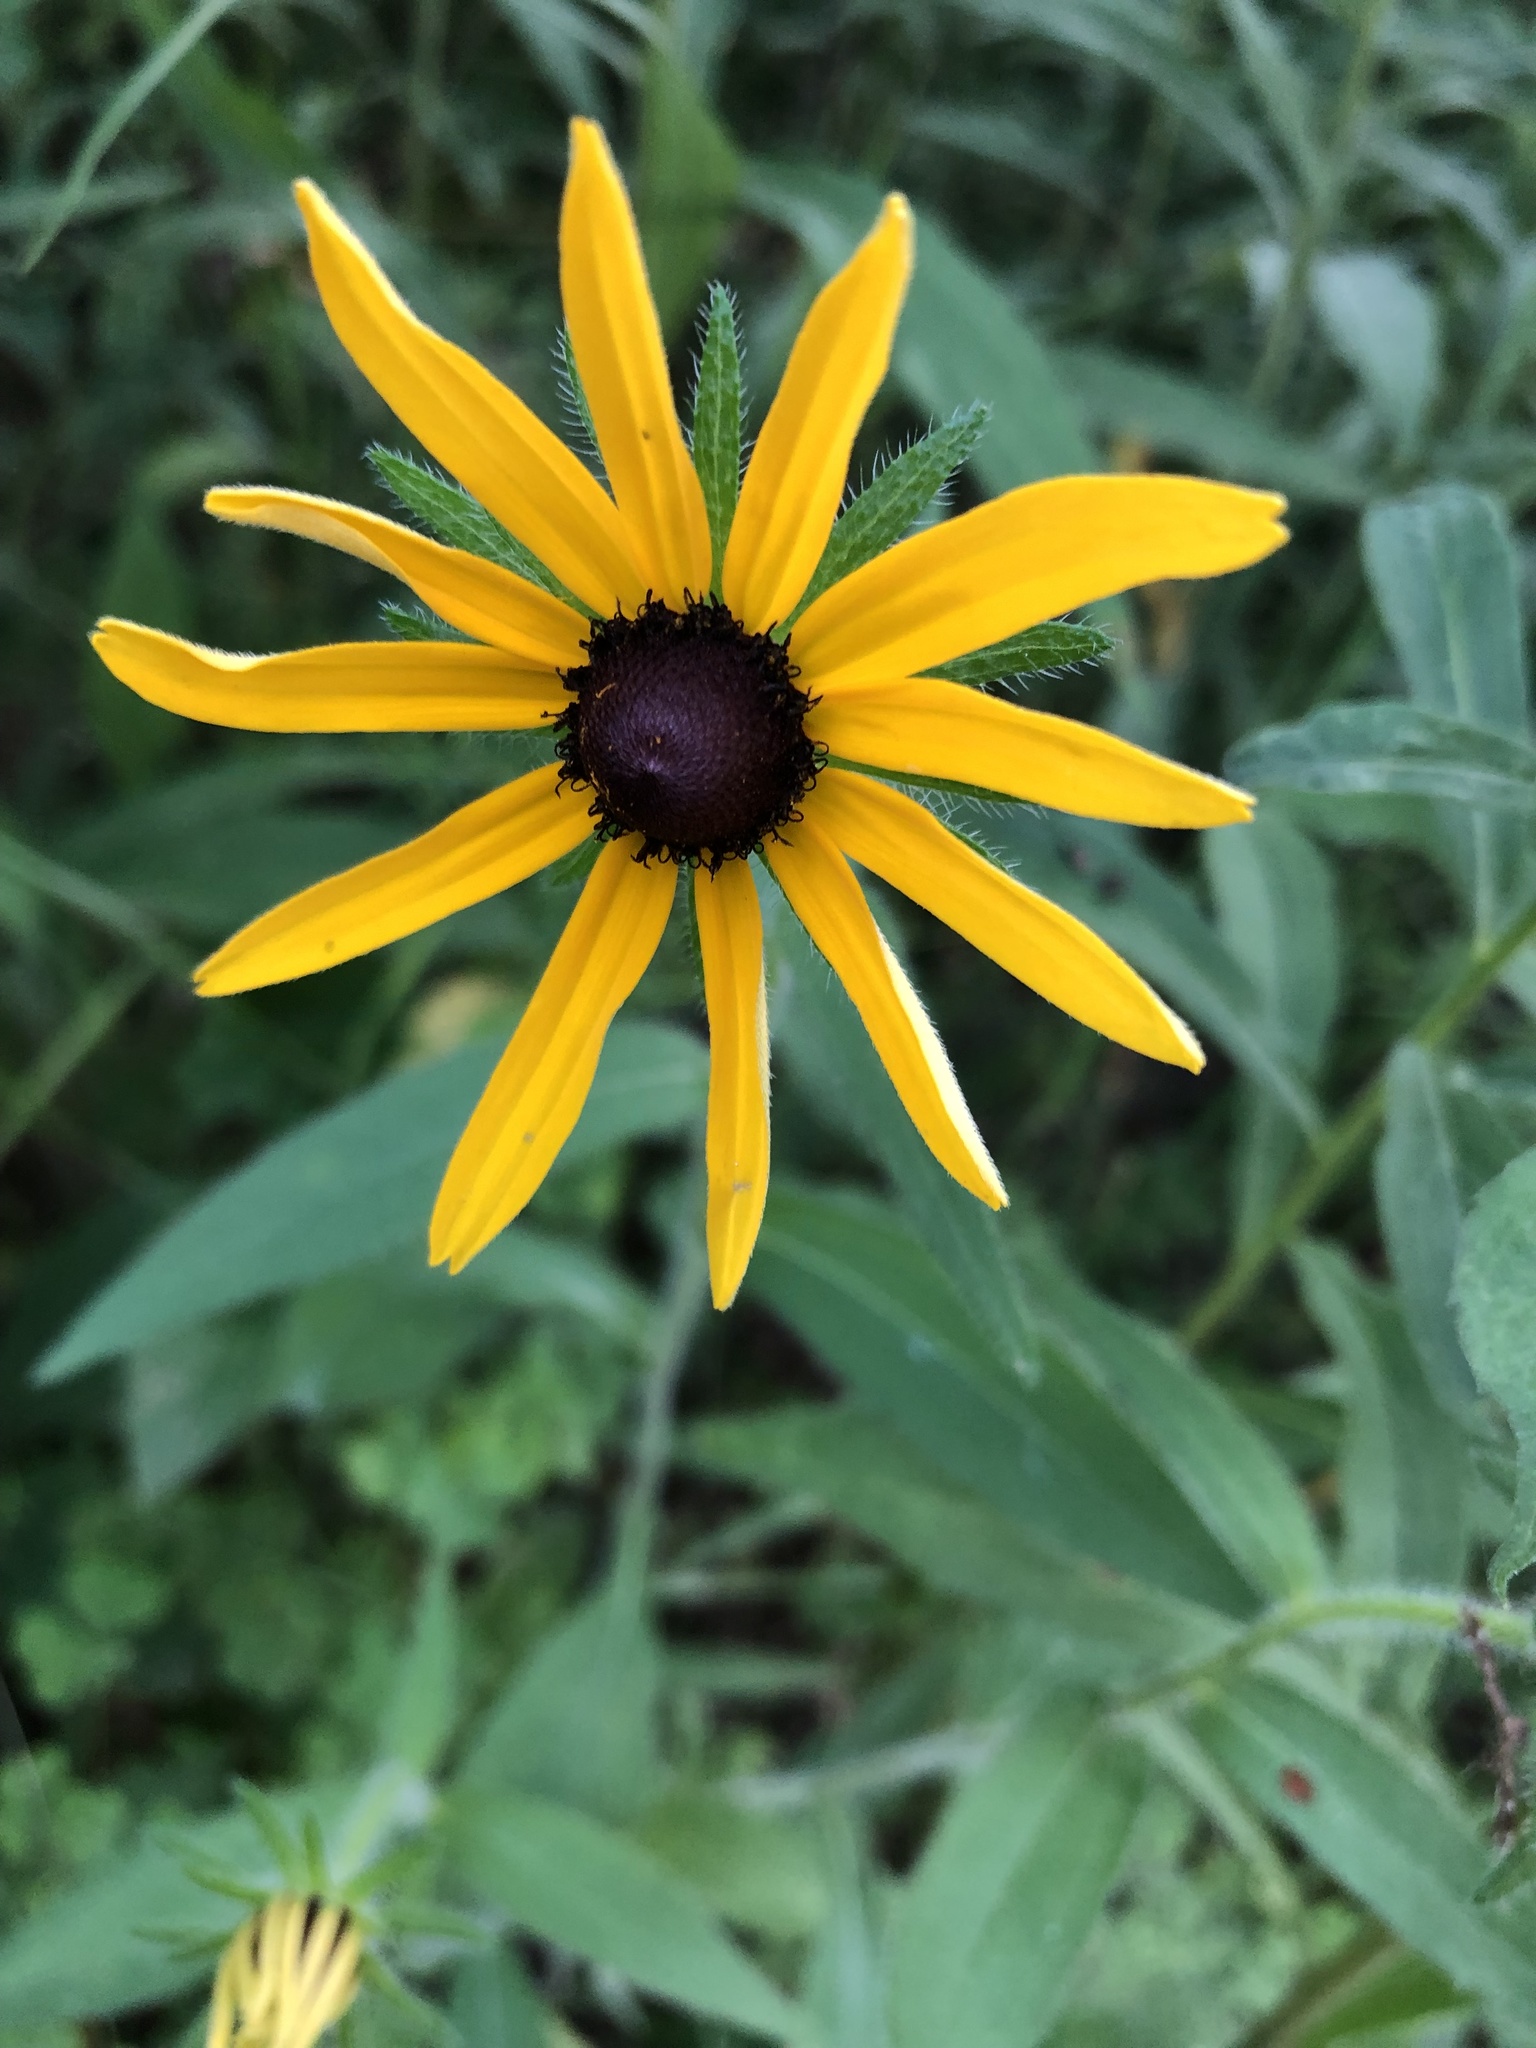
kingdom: Plantae
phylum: Tracheophyta
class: Magnoliopsida
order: Asterales
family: Asteraceae
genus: Rudbeckia
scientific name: Rudbeckia hirta
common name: Black-eyed-susan
